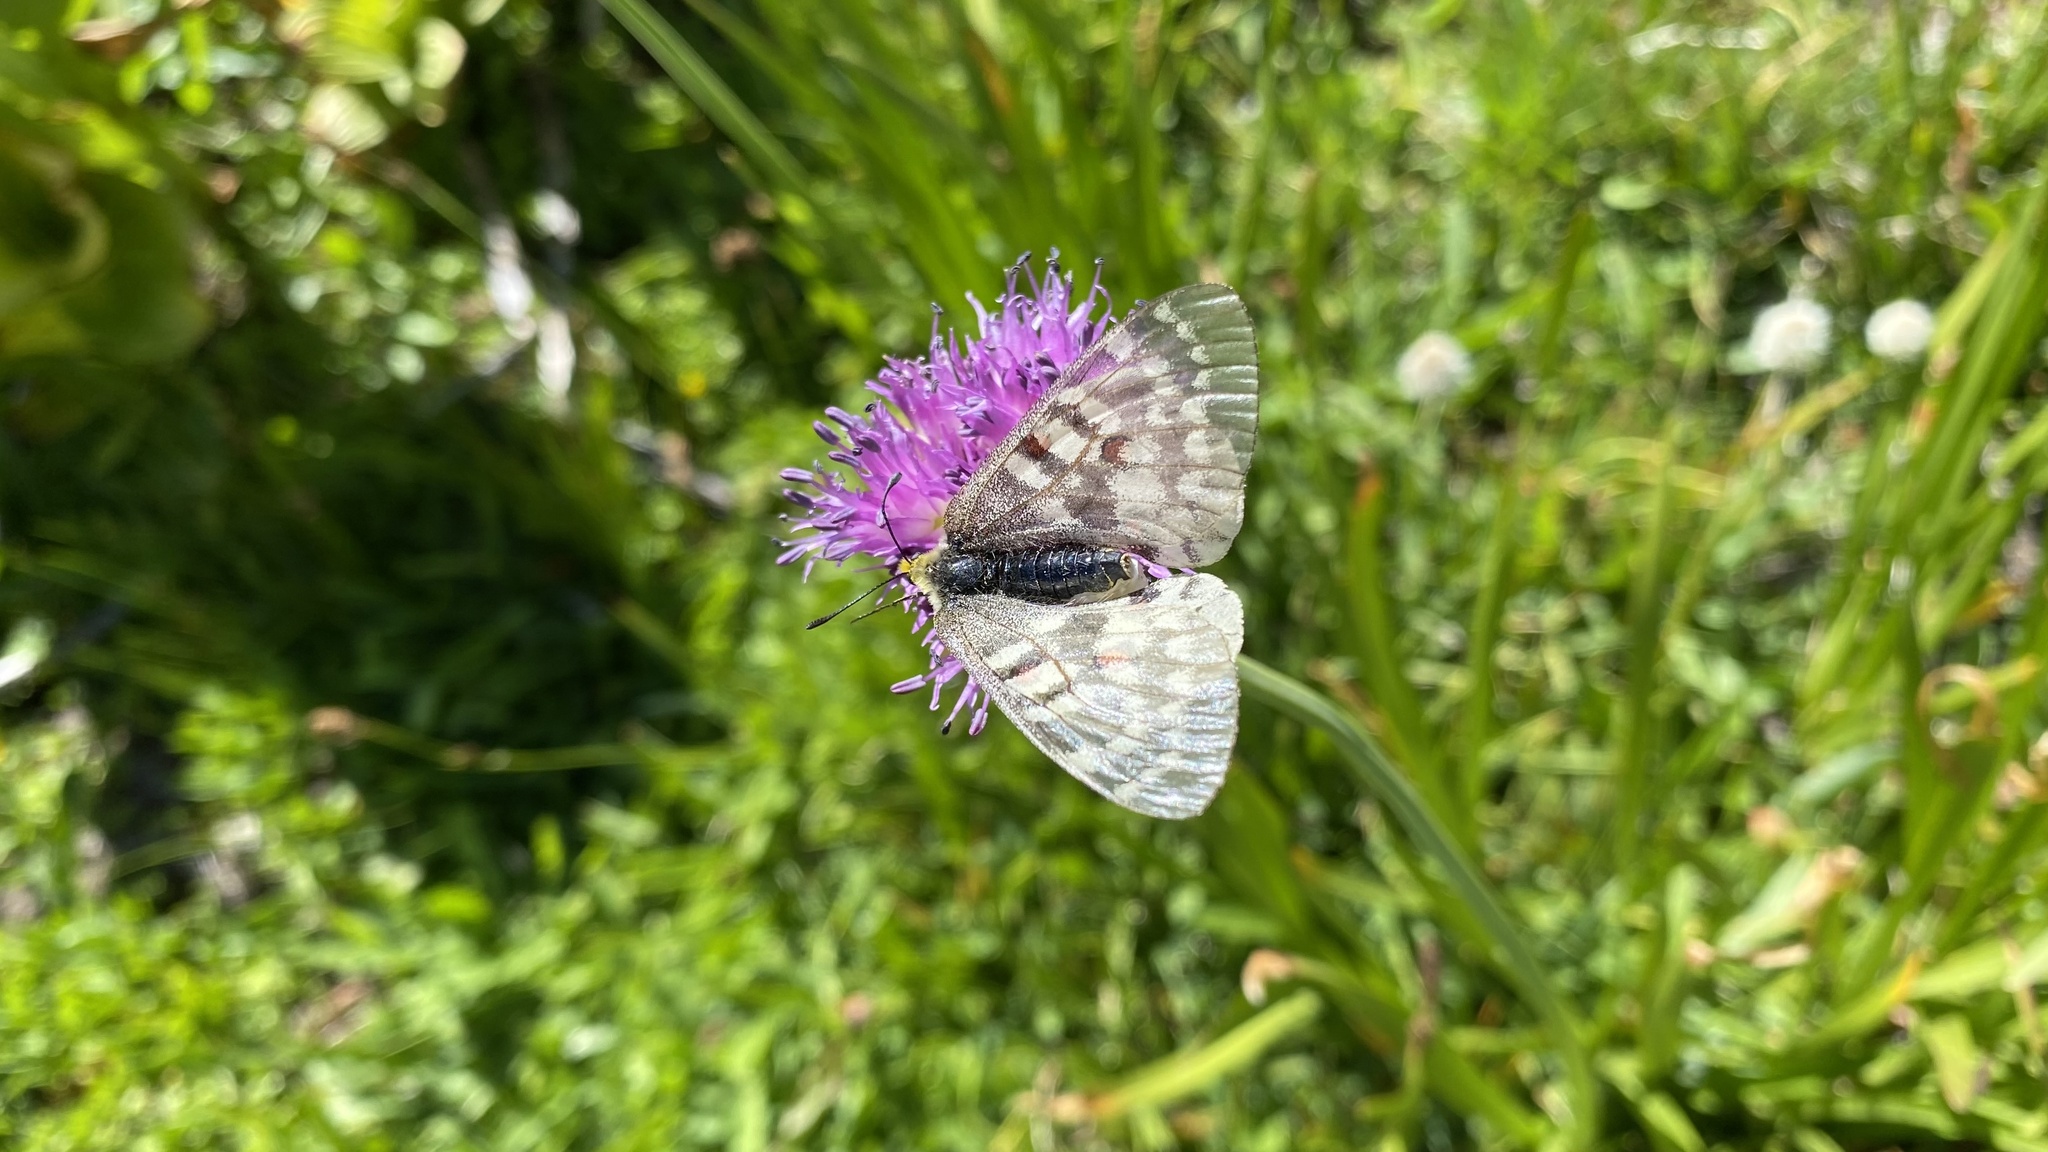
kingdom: Animalia
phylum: Arthropoda
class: Insecta
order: Lepidoptera
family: Papilionidae
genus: Parnassius
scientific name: Parnassius clodius
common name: American apollo
